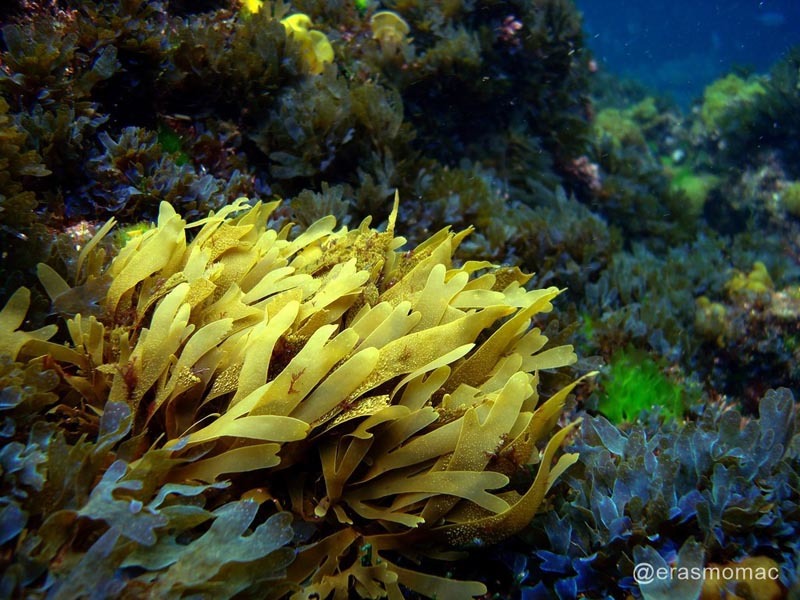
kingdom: Chromista
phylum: Ochrophyta
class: Phaeophyceae
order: Dictyotales
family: Dictyotaceae
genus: Dictyota
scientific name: Dictyota kunthii
